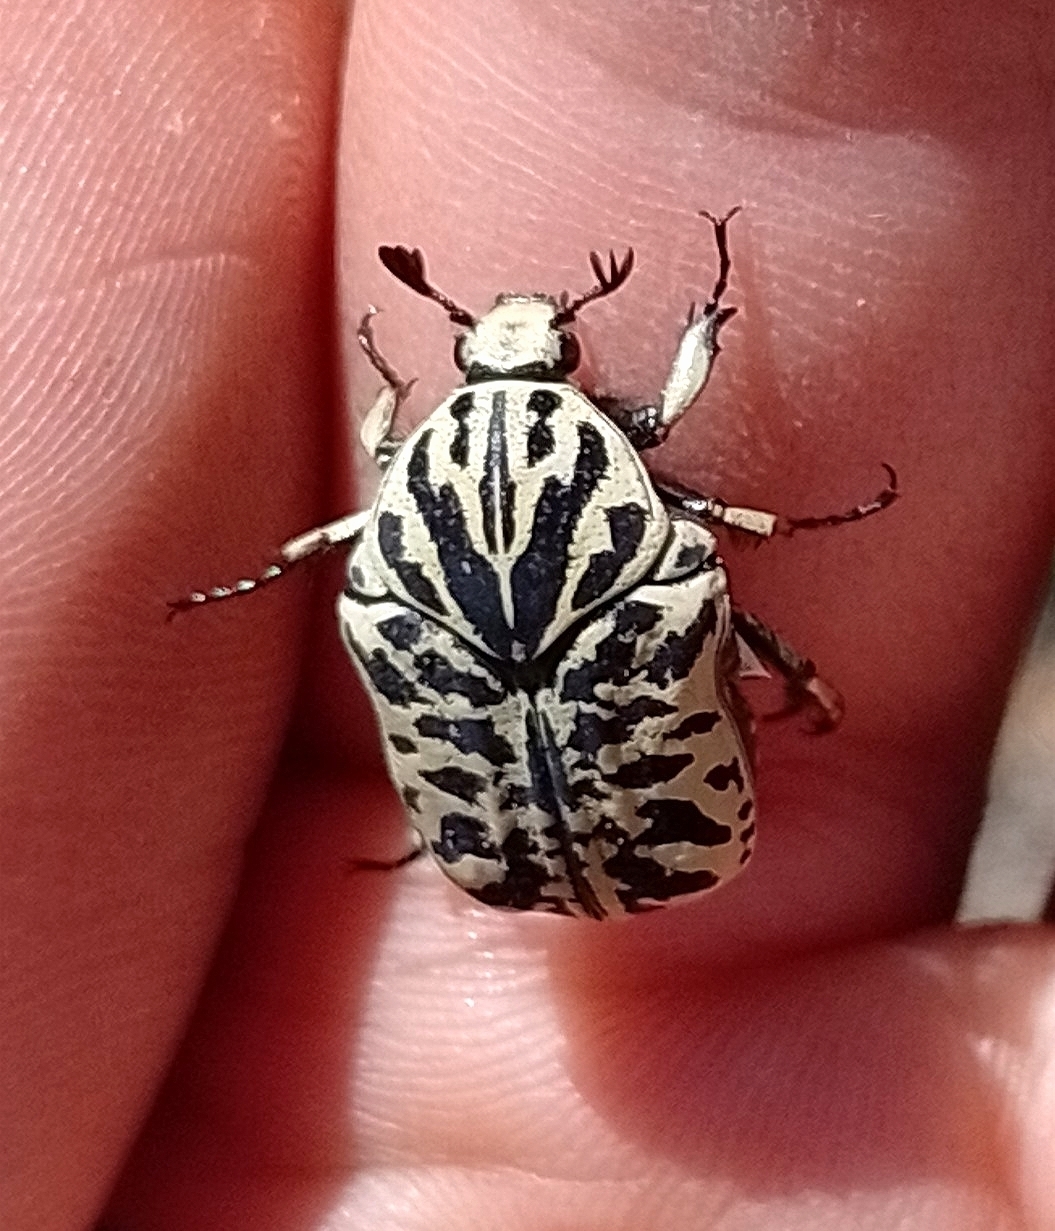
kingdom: Animalia
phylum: Arthropoda
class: Insecta
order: Coleoptera
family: Scarabaeidae
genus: Marmarina
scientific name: Marmarina tigrina
